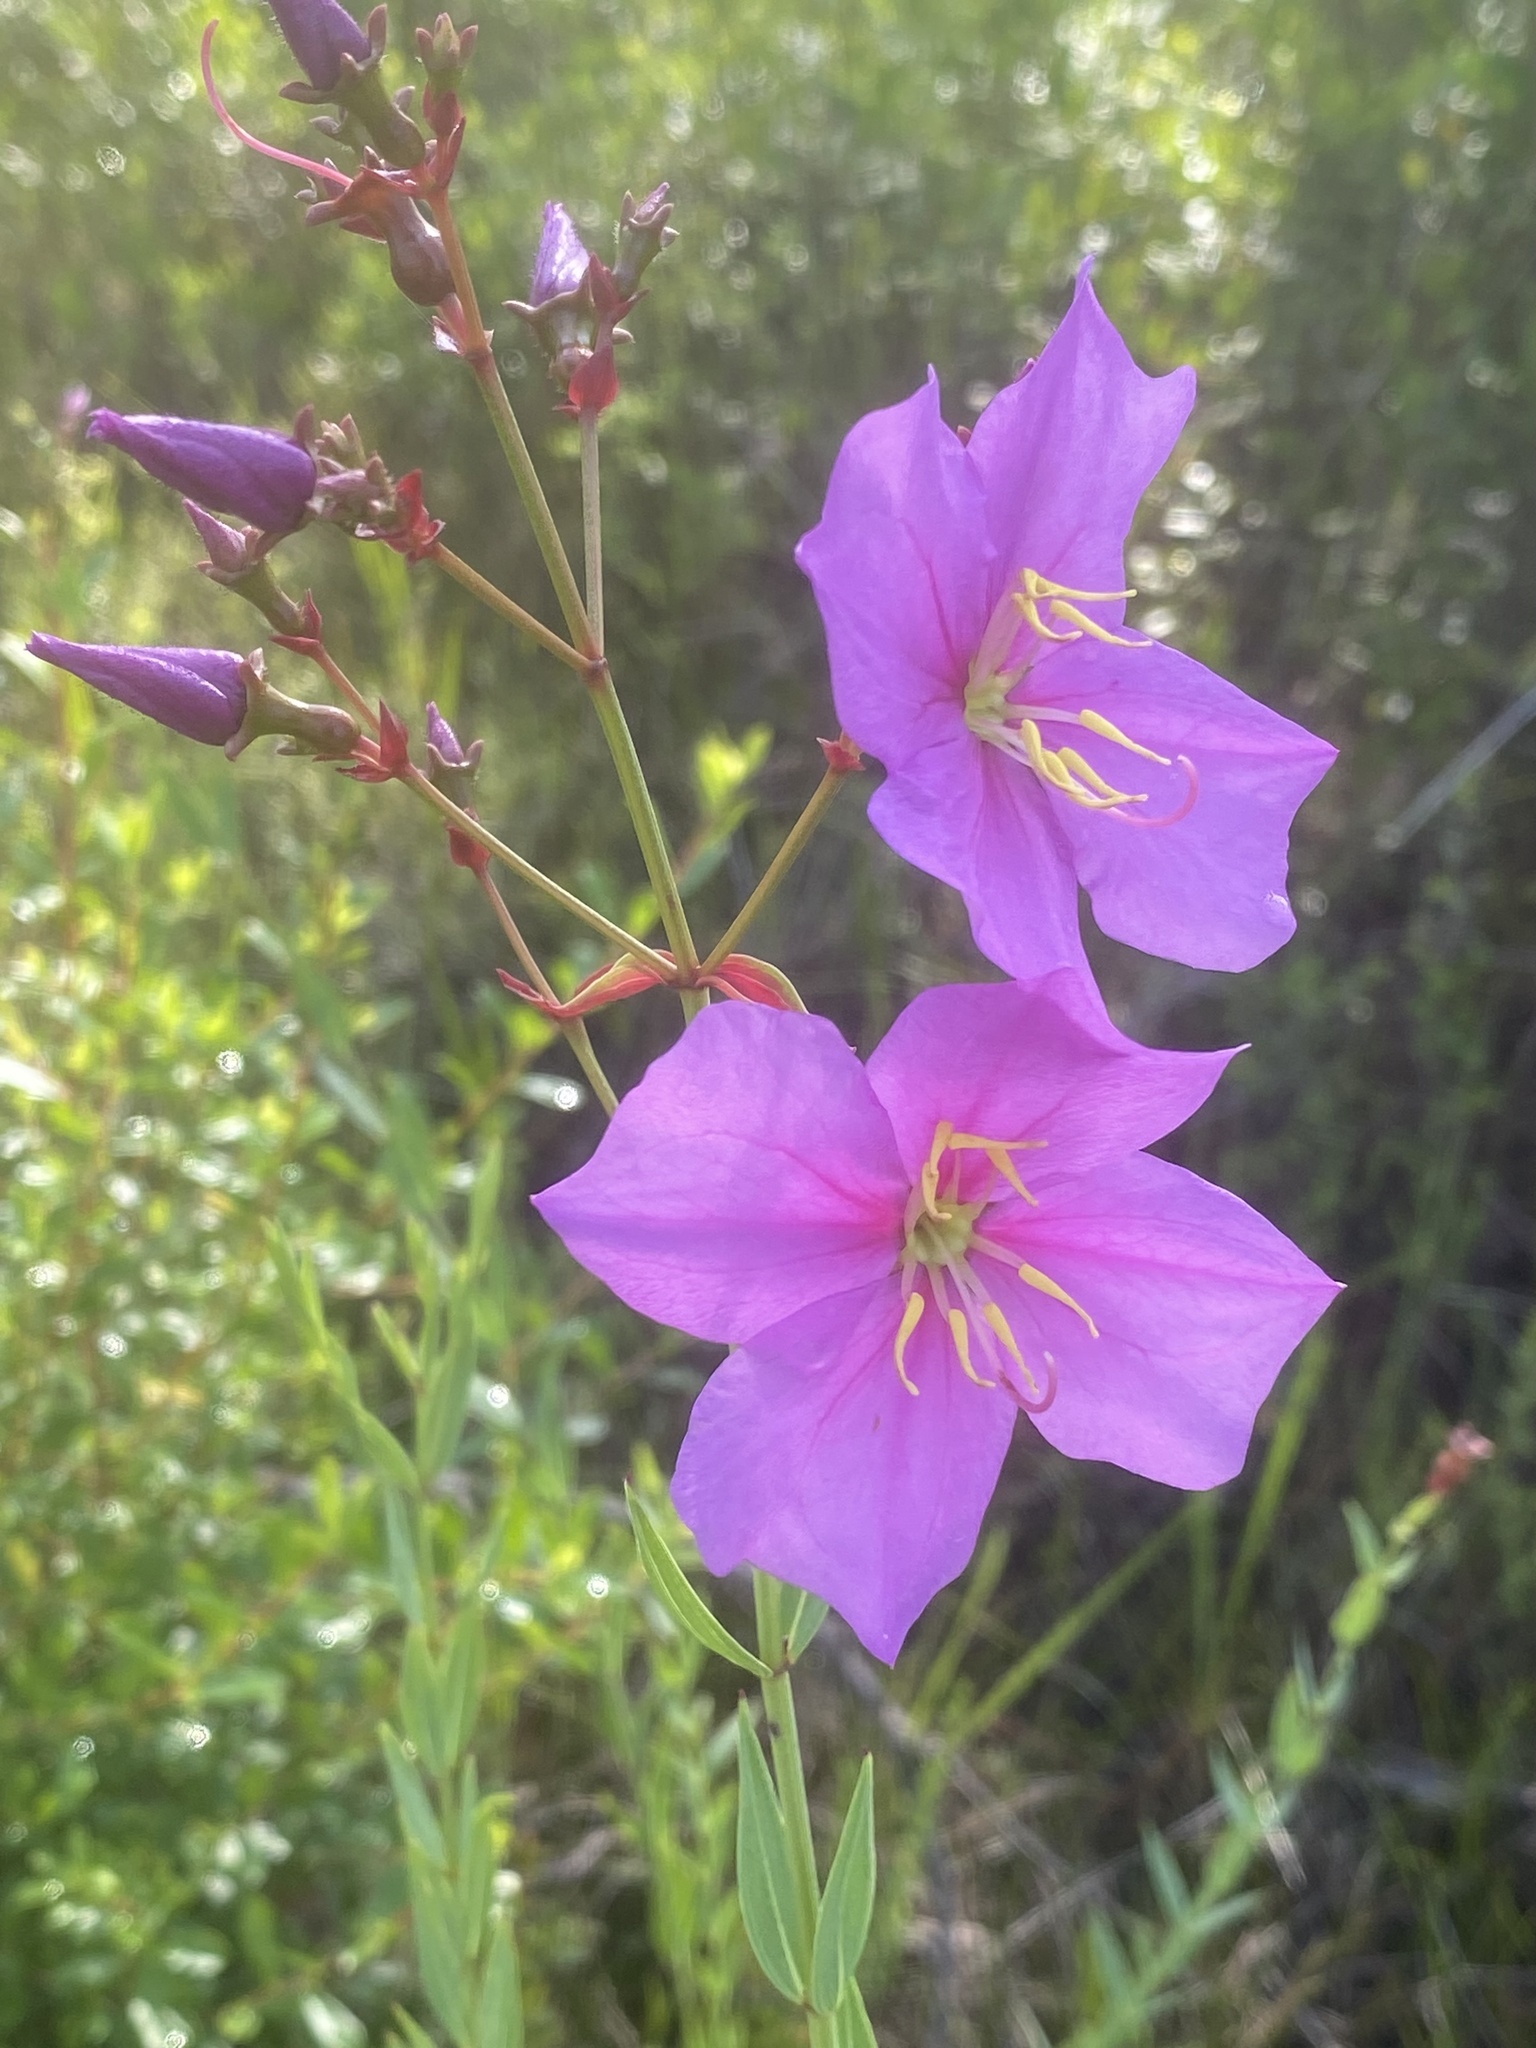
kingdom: Plantae
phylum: Tracheophyta
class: Magnoliopsida
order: Myrtales
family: Melastomataceae
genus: Rhexia
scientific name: Rhexia alifanus
